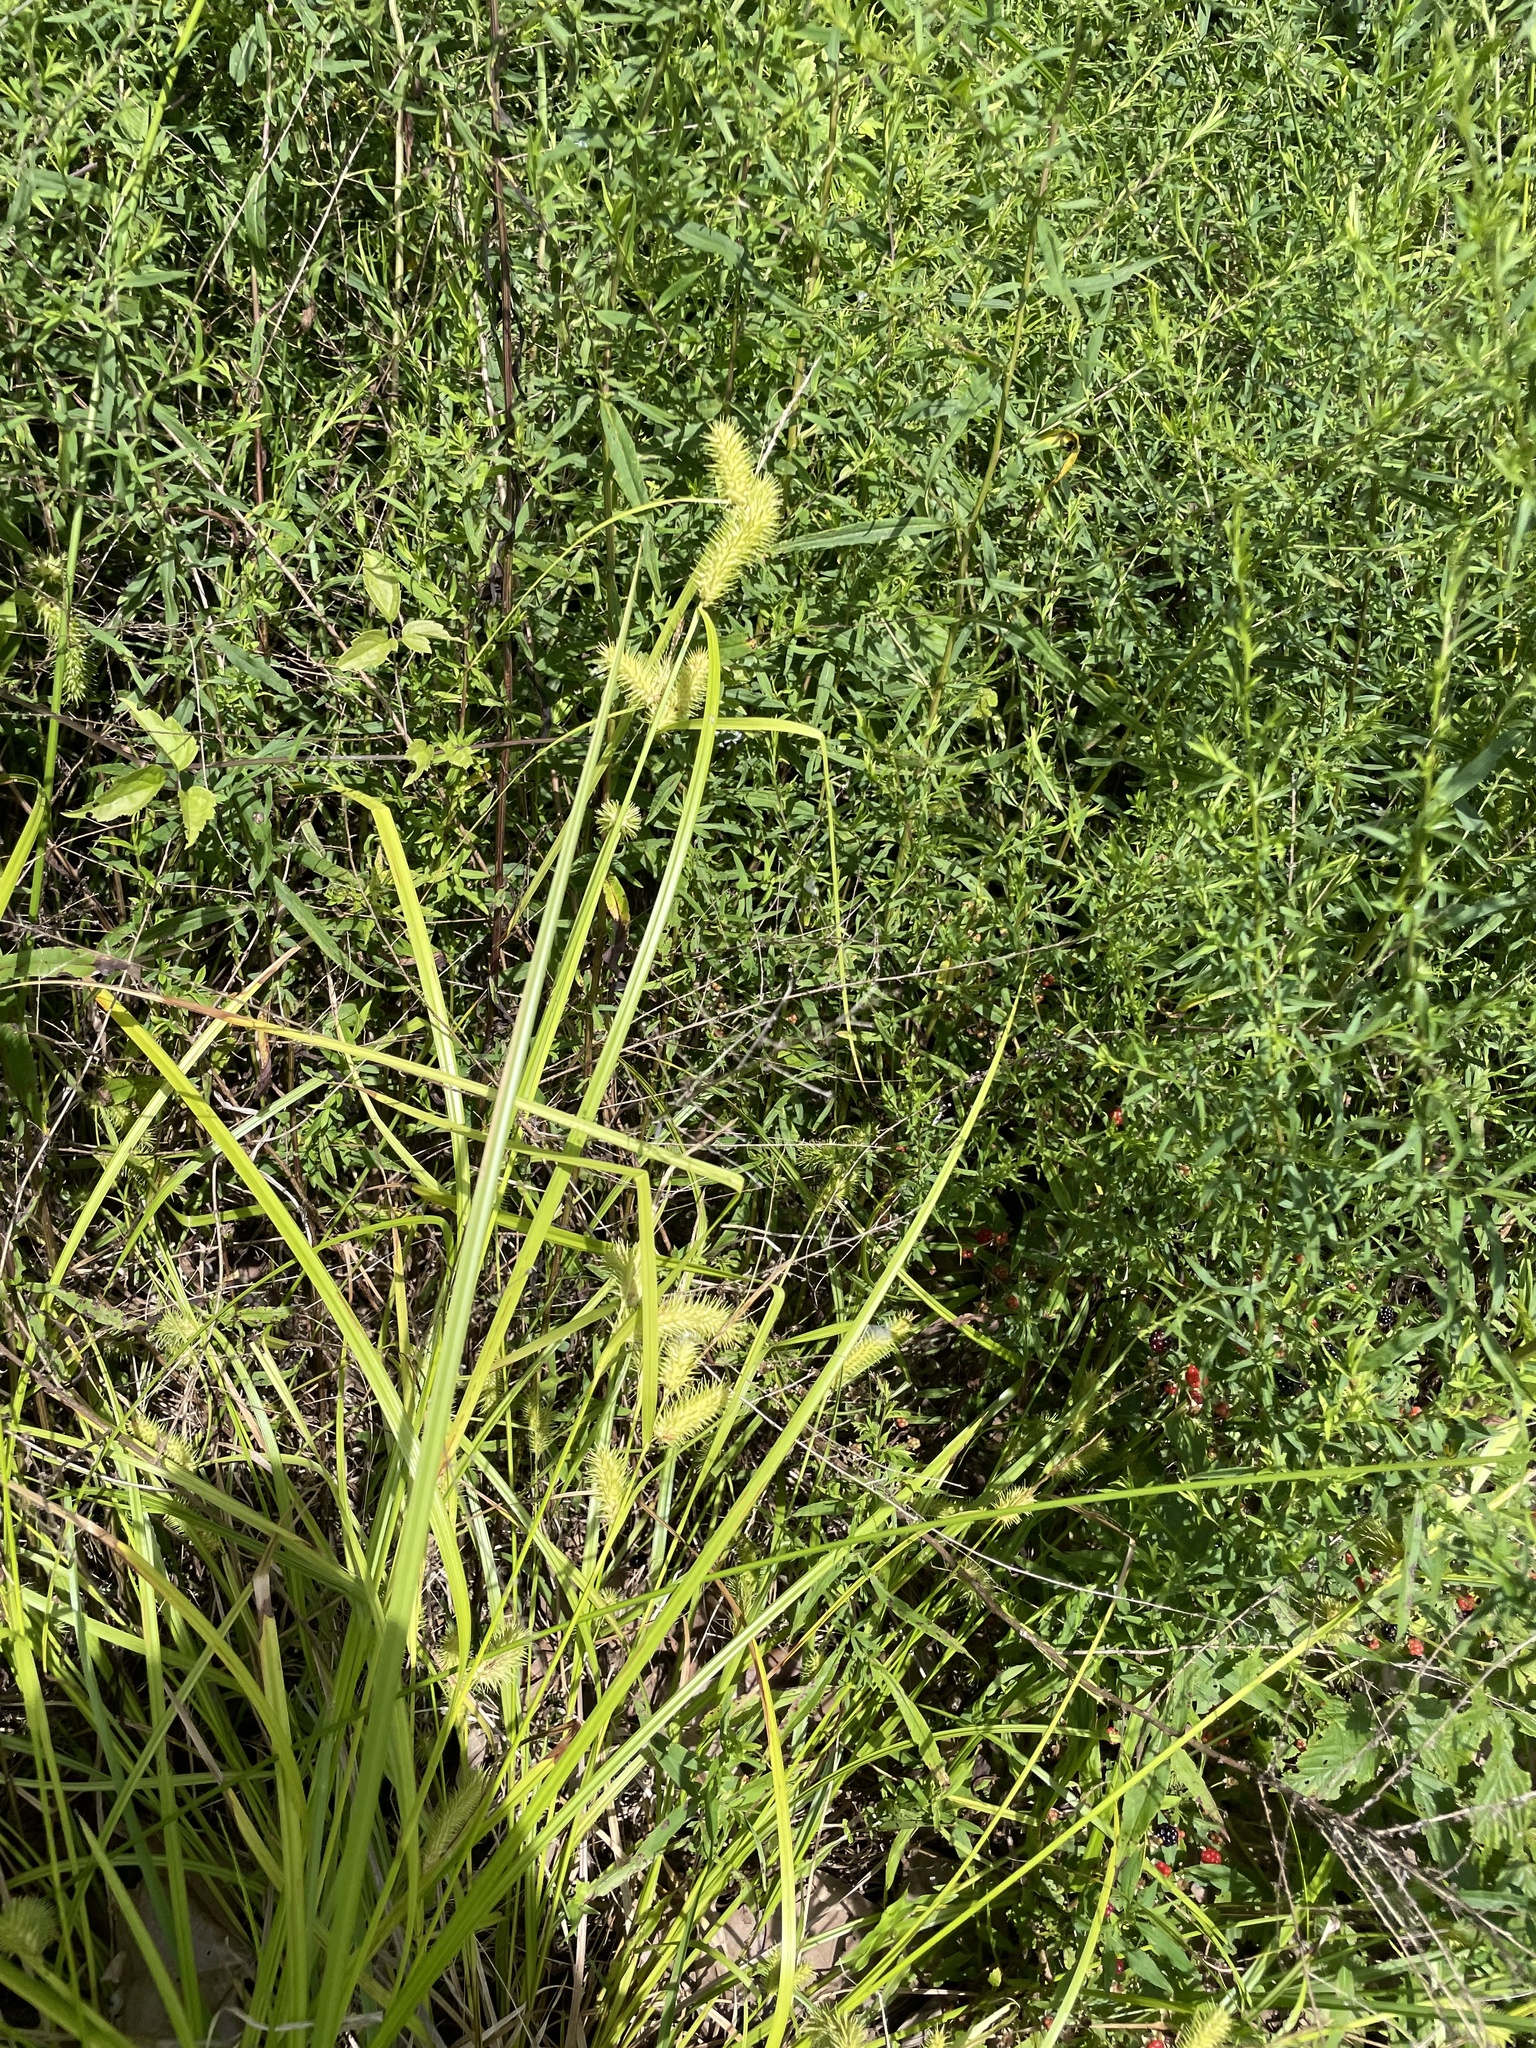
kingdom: Plantae
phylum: Tracheophyta
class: Liliopsida
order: Poales
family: Cyperaceae
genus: Carex
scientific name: Carex lurida
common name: Sallow sedge
